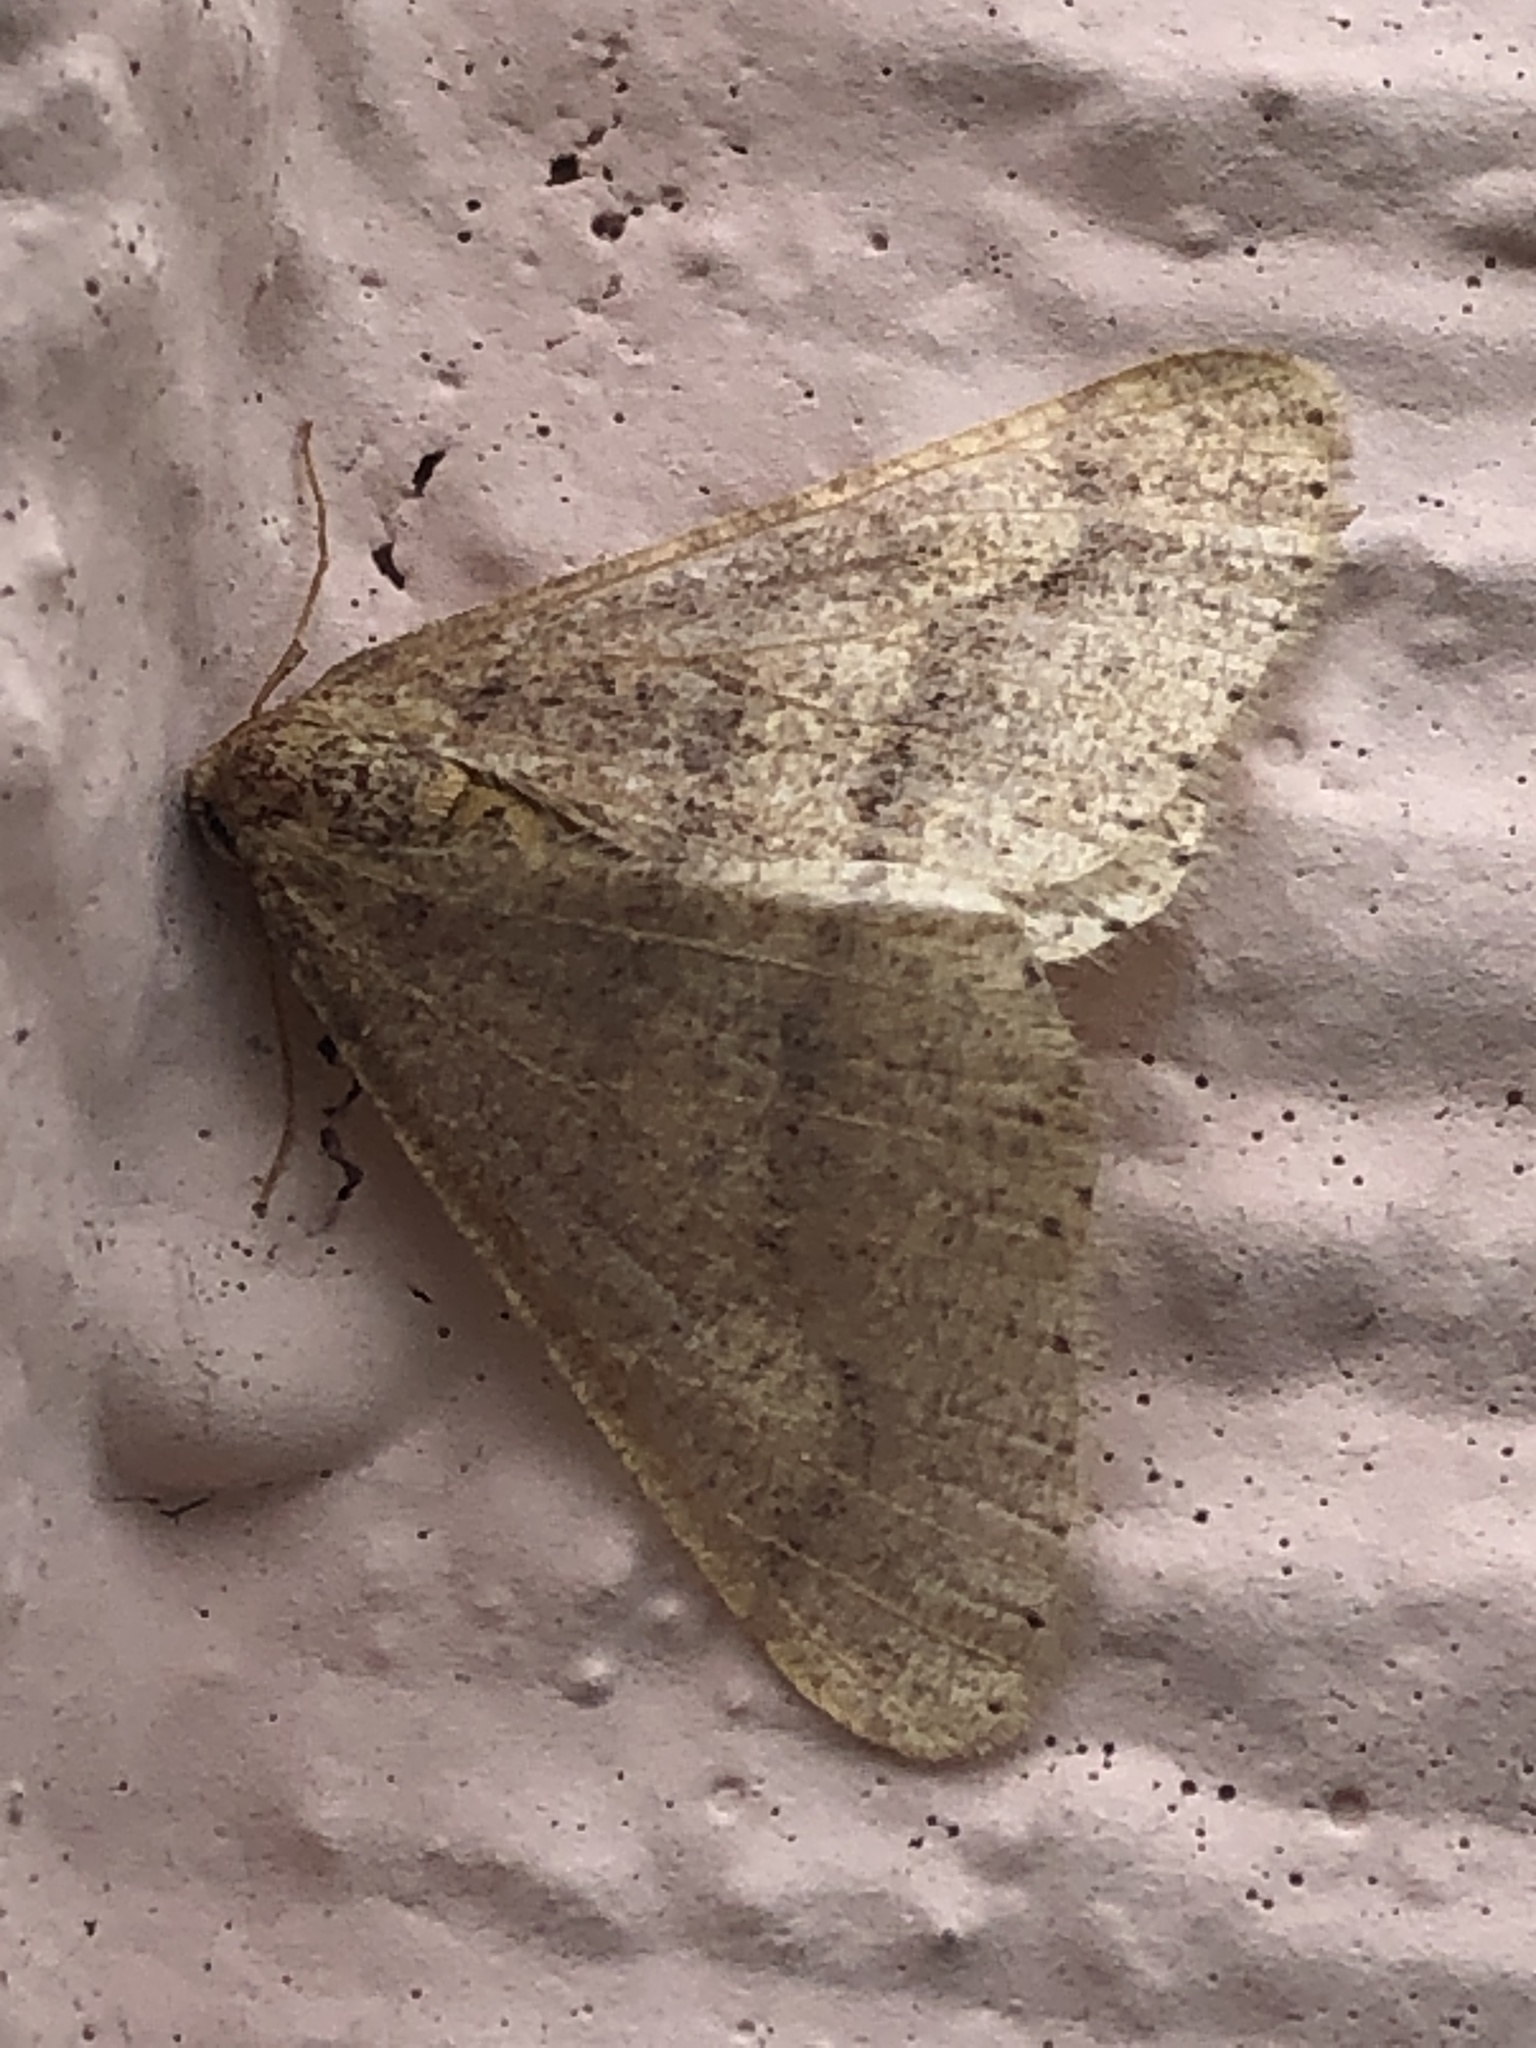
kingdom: Animalia
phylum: Arthropoda
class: Insecta
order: Lepidoptera
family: Geometridae
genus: Agriopis
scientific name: Agriopis marginaria
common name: Dotted border
